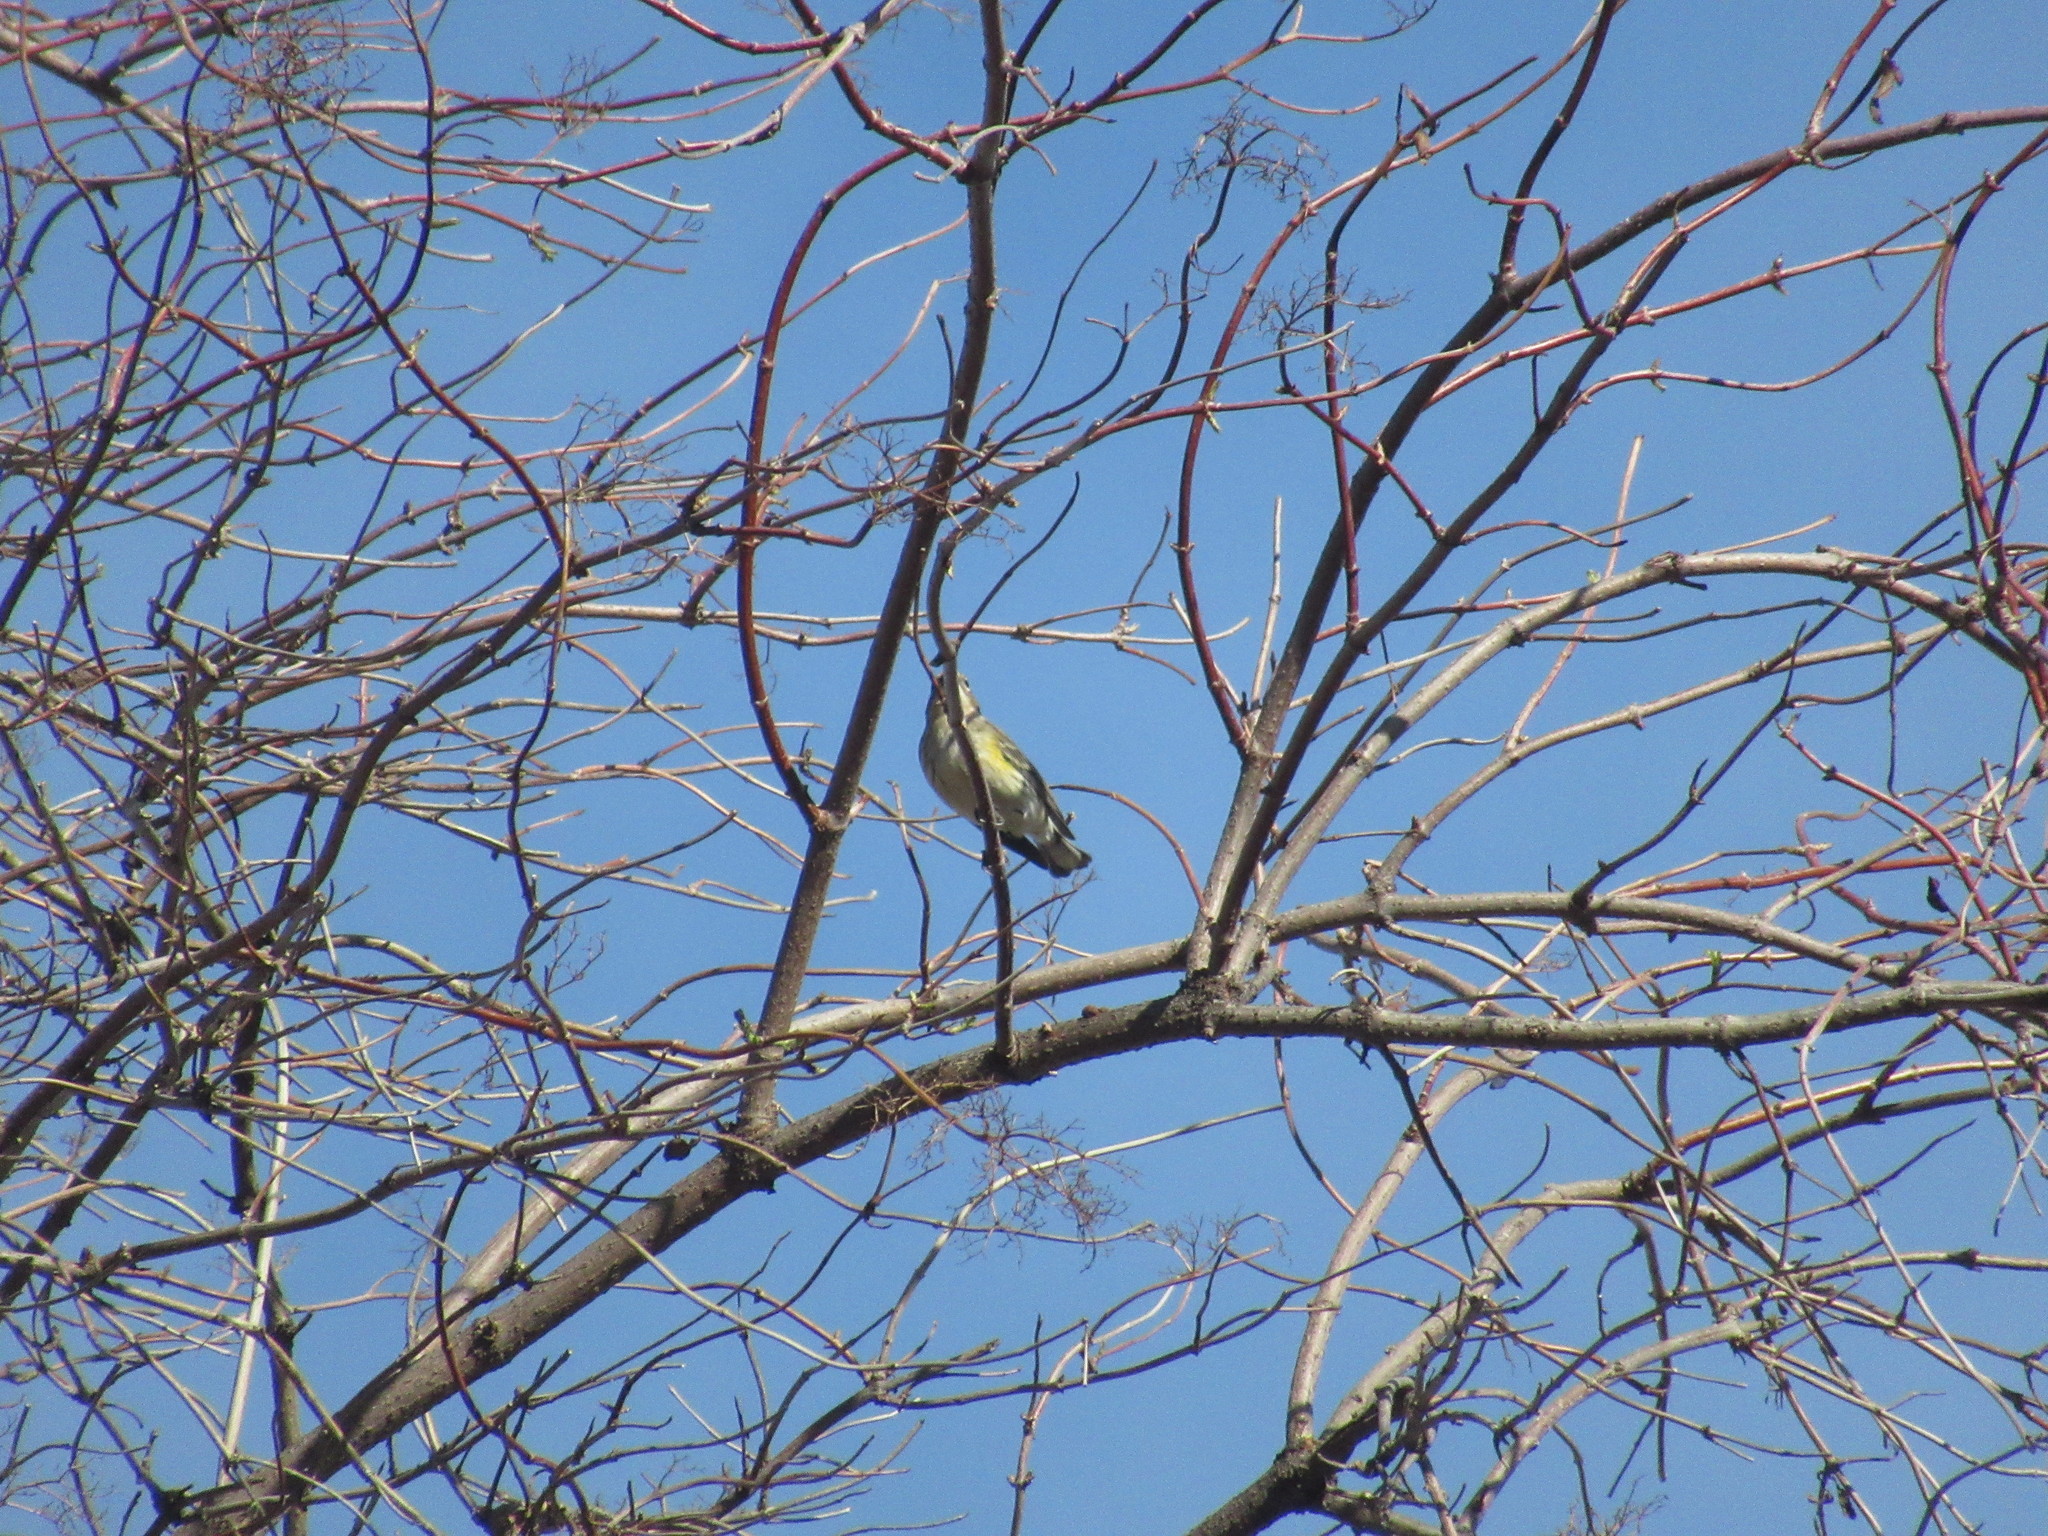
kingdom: Animalia
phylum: Chordata
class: Aves
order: Passeriformes
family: Parulidae
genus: Setophaga
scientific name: Setophaga coronata
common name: Myrtle warbler
